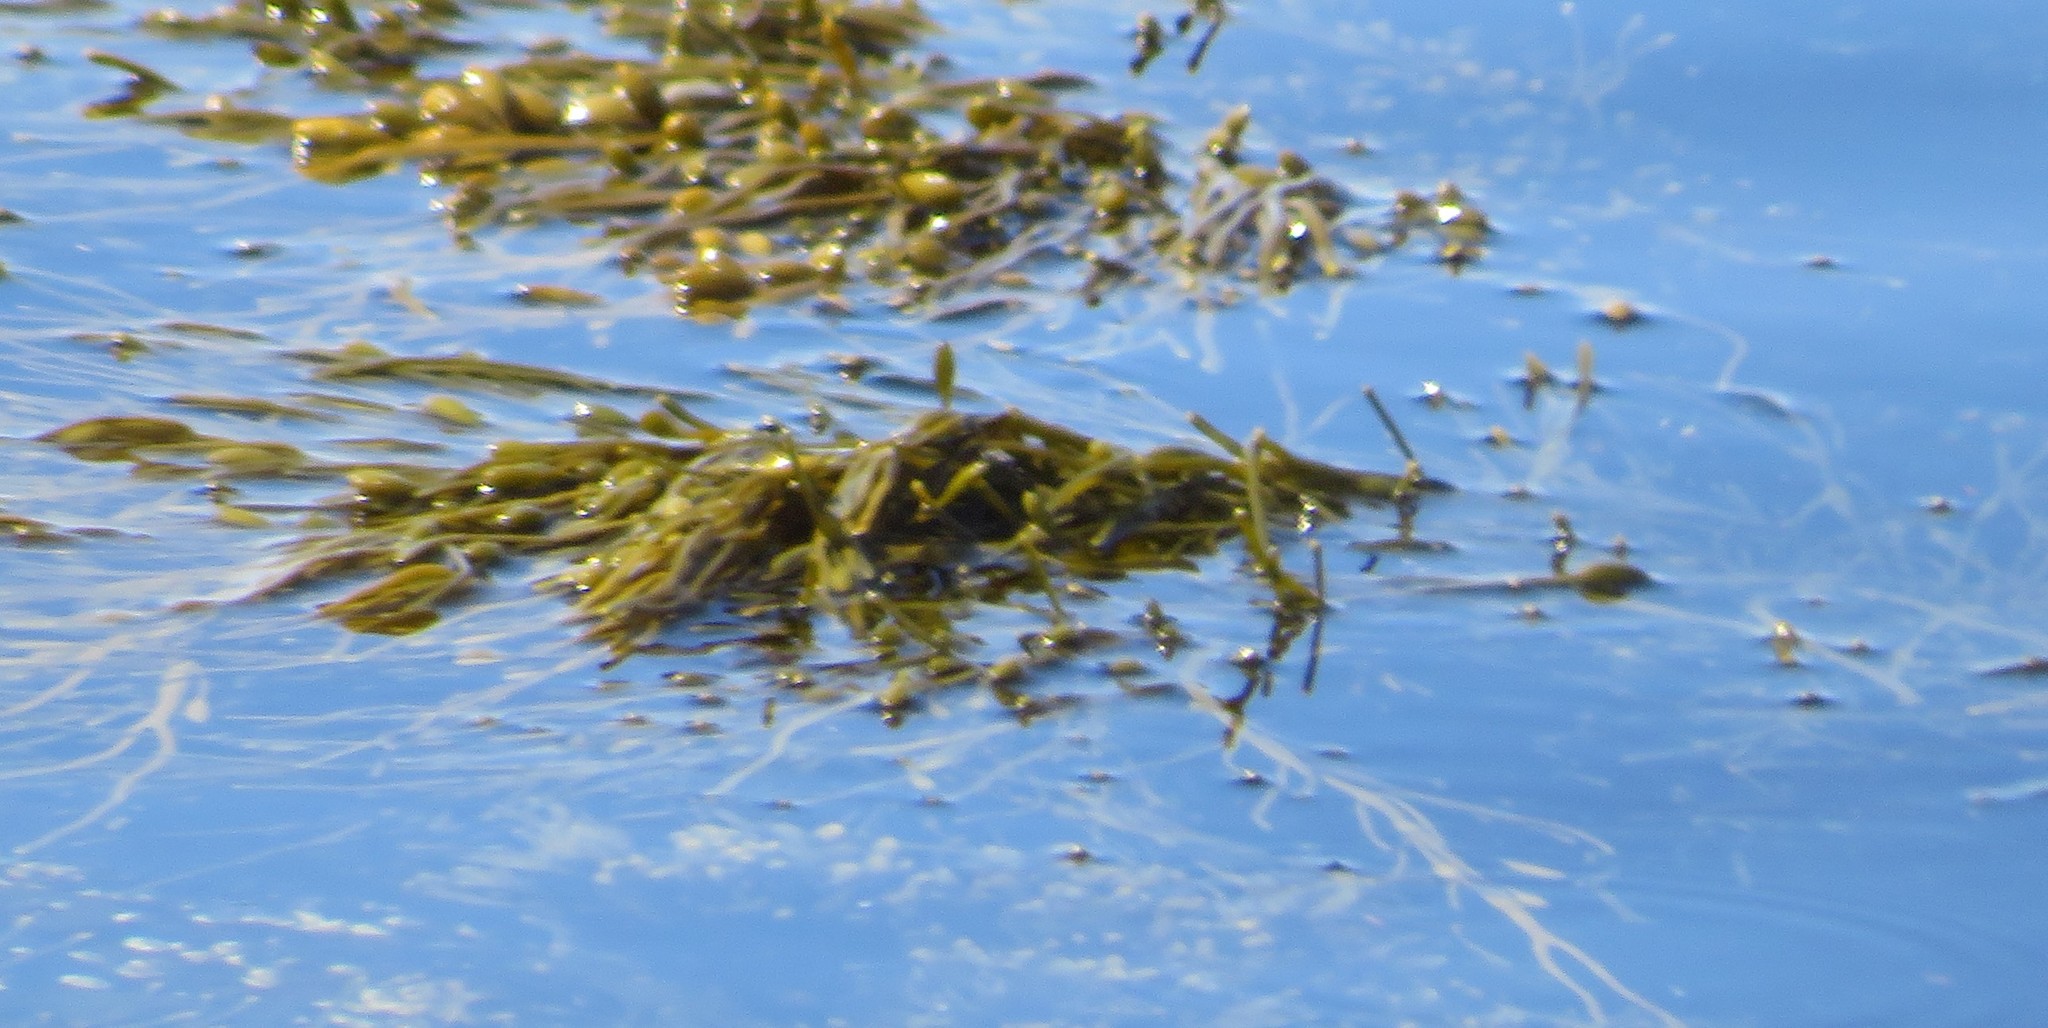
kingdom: Chromista
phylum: Ochrophyta
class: Phaeophyceae
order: Fucales
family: Fucaceae
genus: Ascophyllum
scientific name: Ascophyllum nodosum
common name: Knotted wrack
